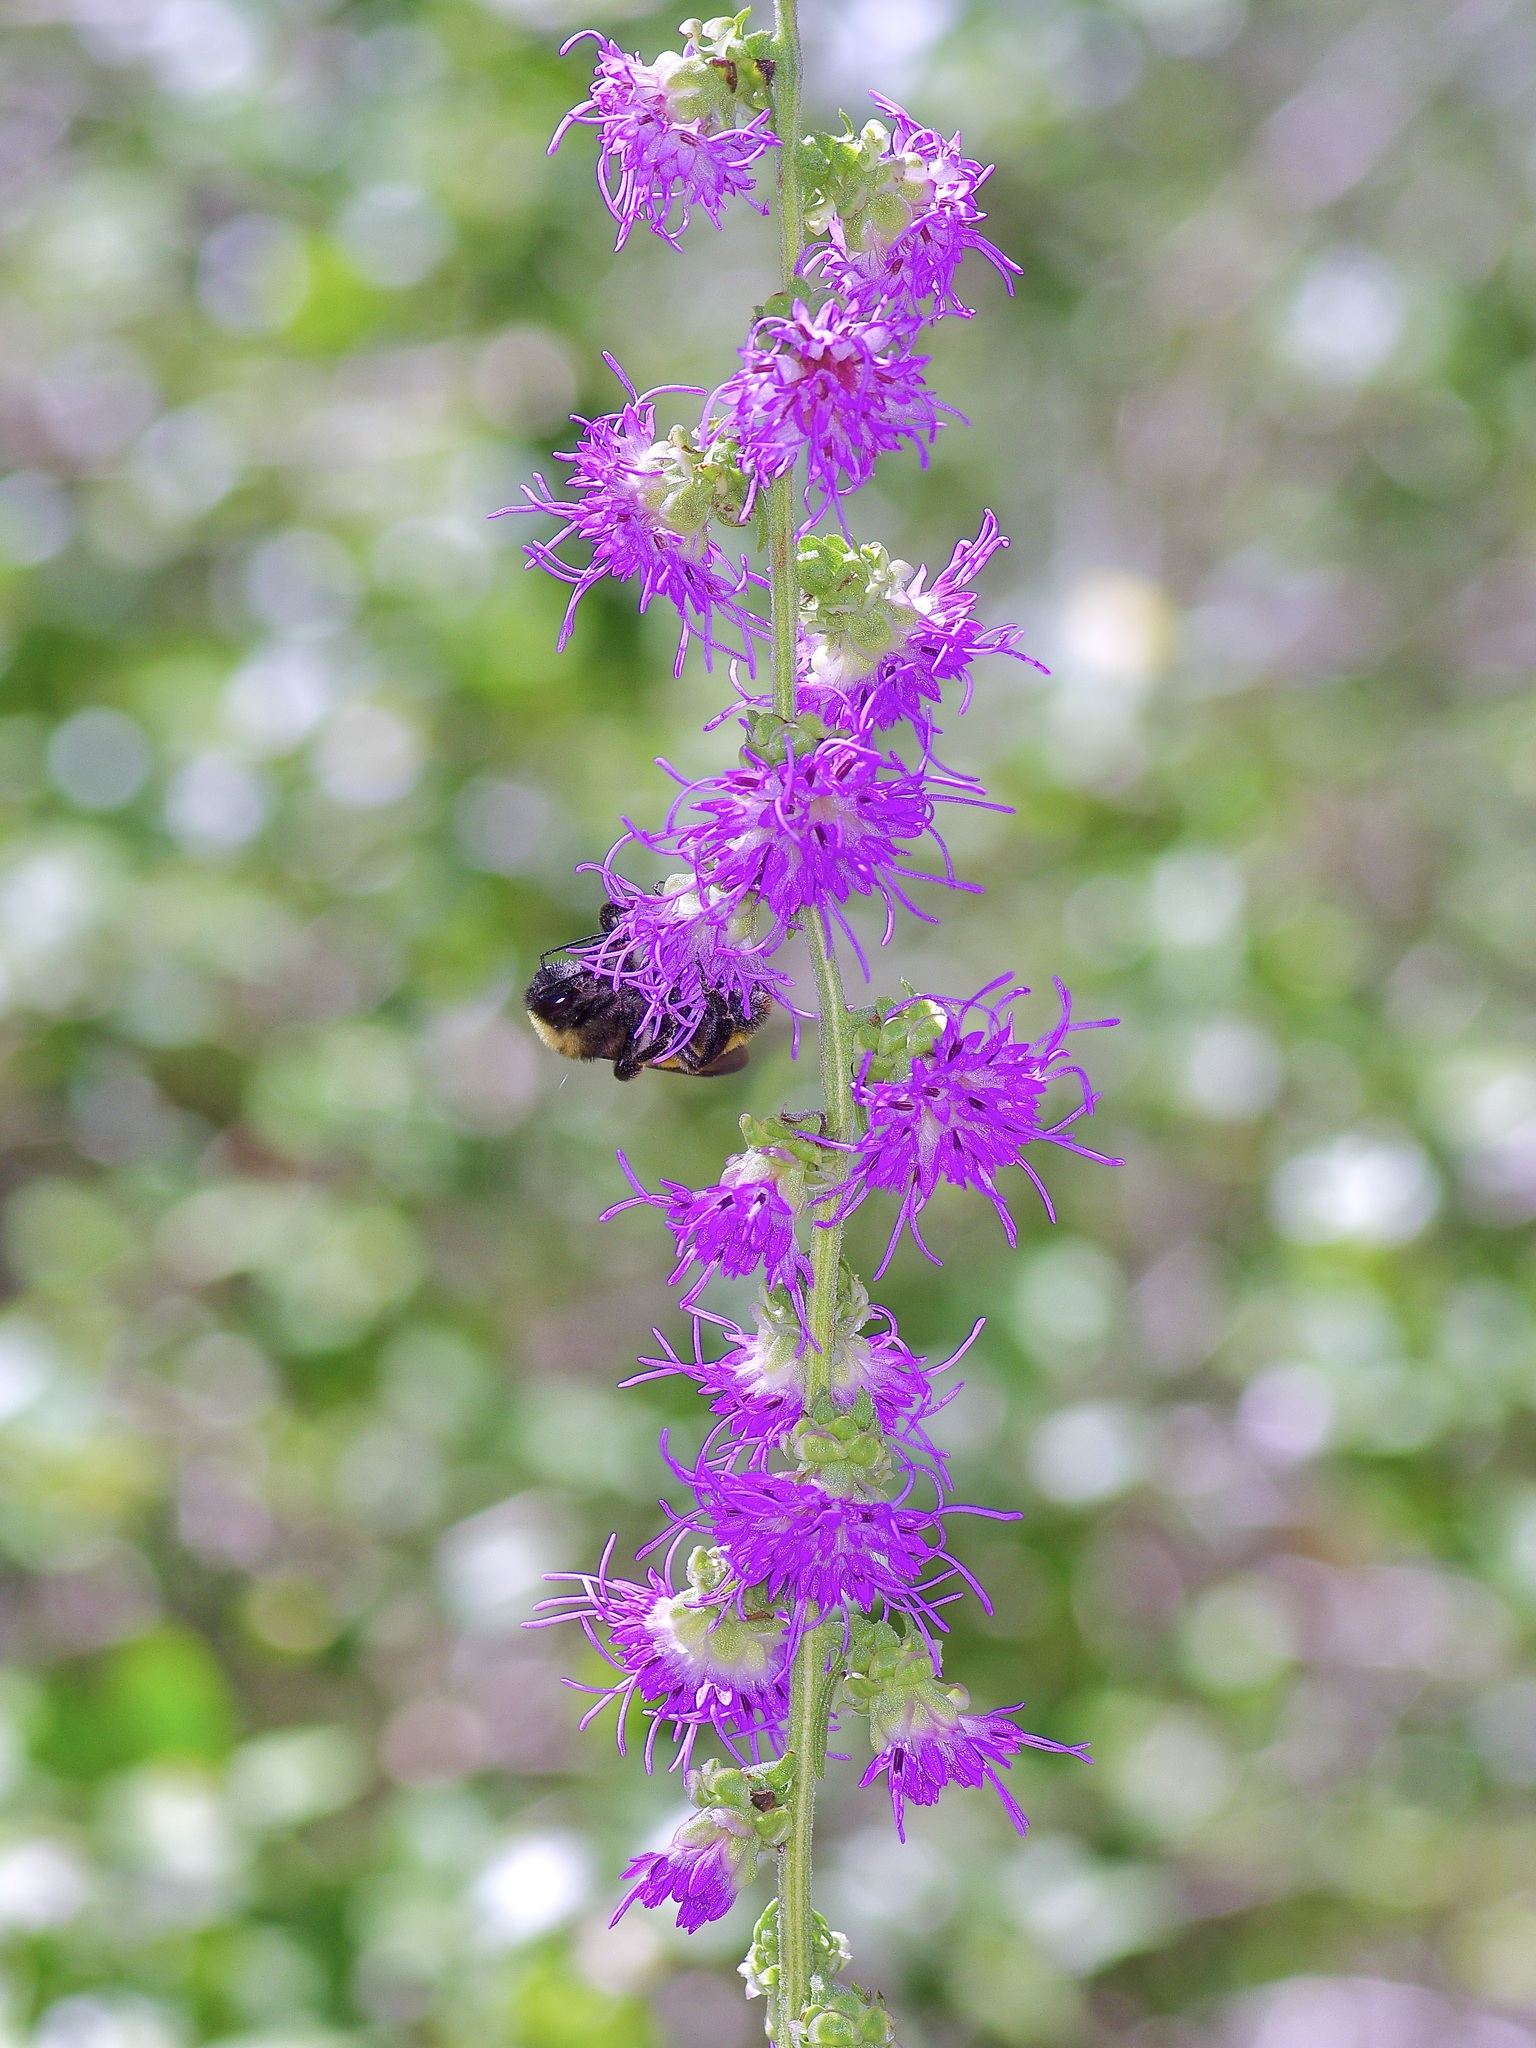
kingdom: Animalia
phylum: Arthropoda
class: Insecta
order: Hymenoptera
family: Apidae
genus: Bombus
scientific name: Bombus pensylvanicus
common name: Bumble bee
